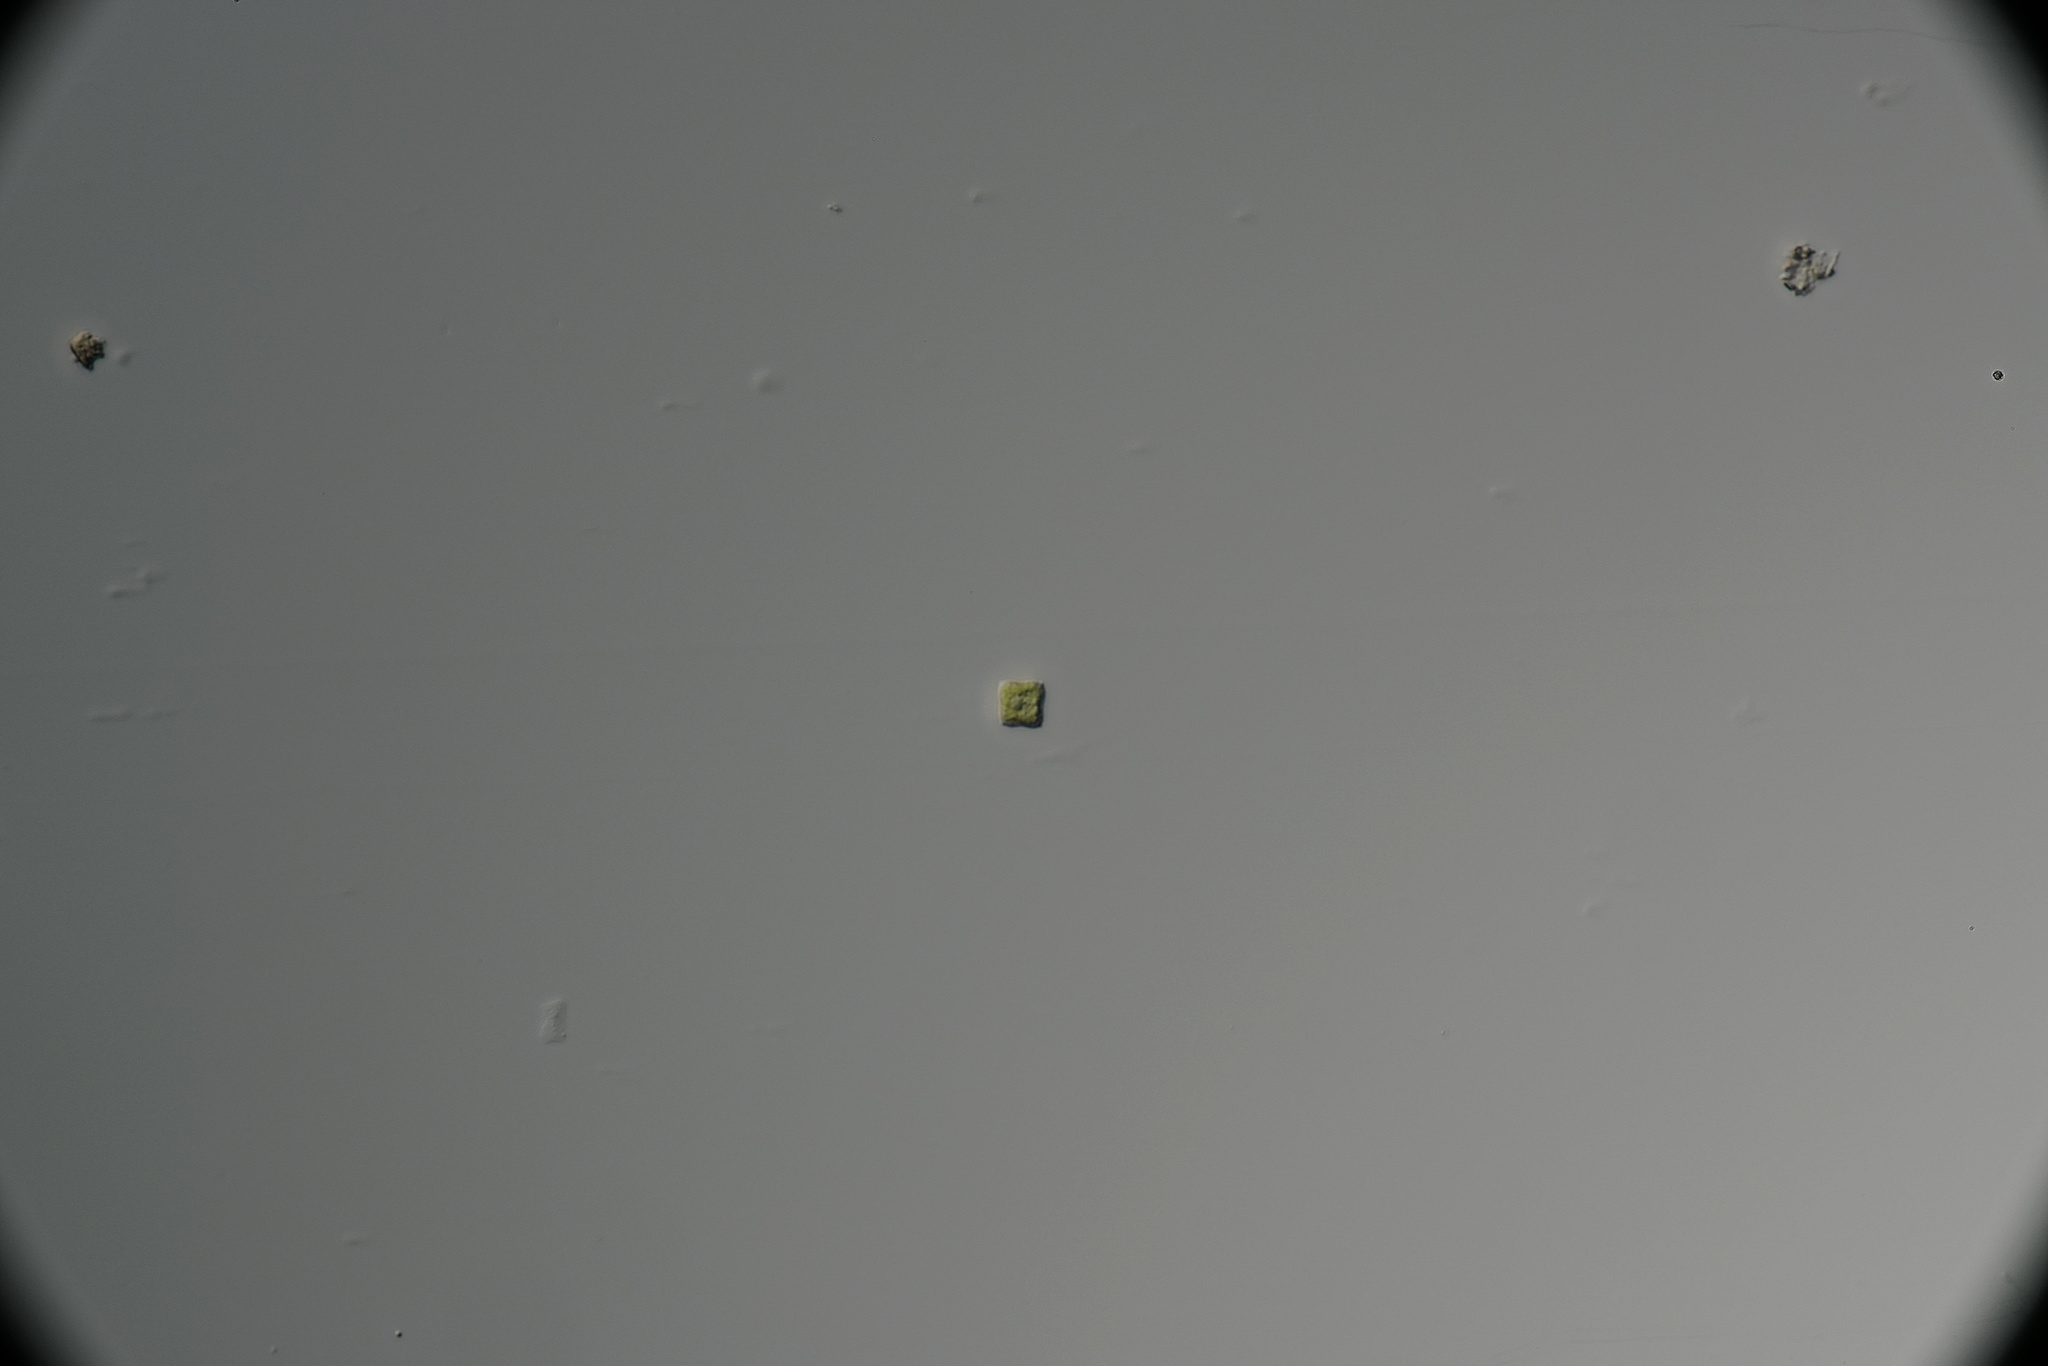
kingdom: Plantae
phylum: Chlorophyta
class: Chlorophyceae
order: Sphaeropleales
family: Hydrodictyaceae
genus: Tetraedron
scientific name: Tetraedron minimum
